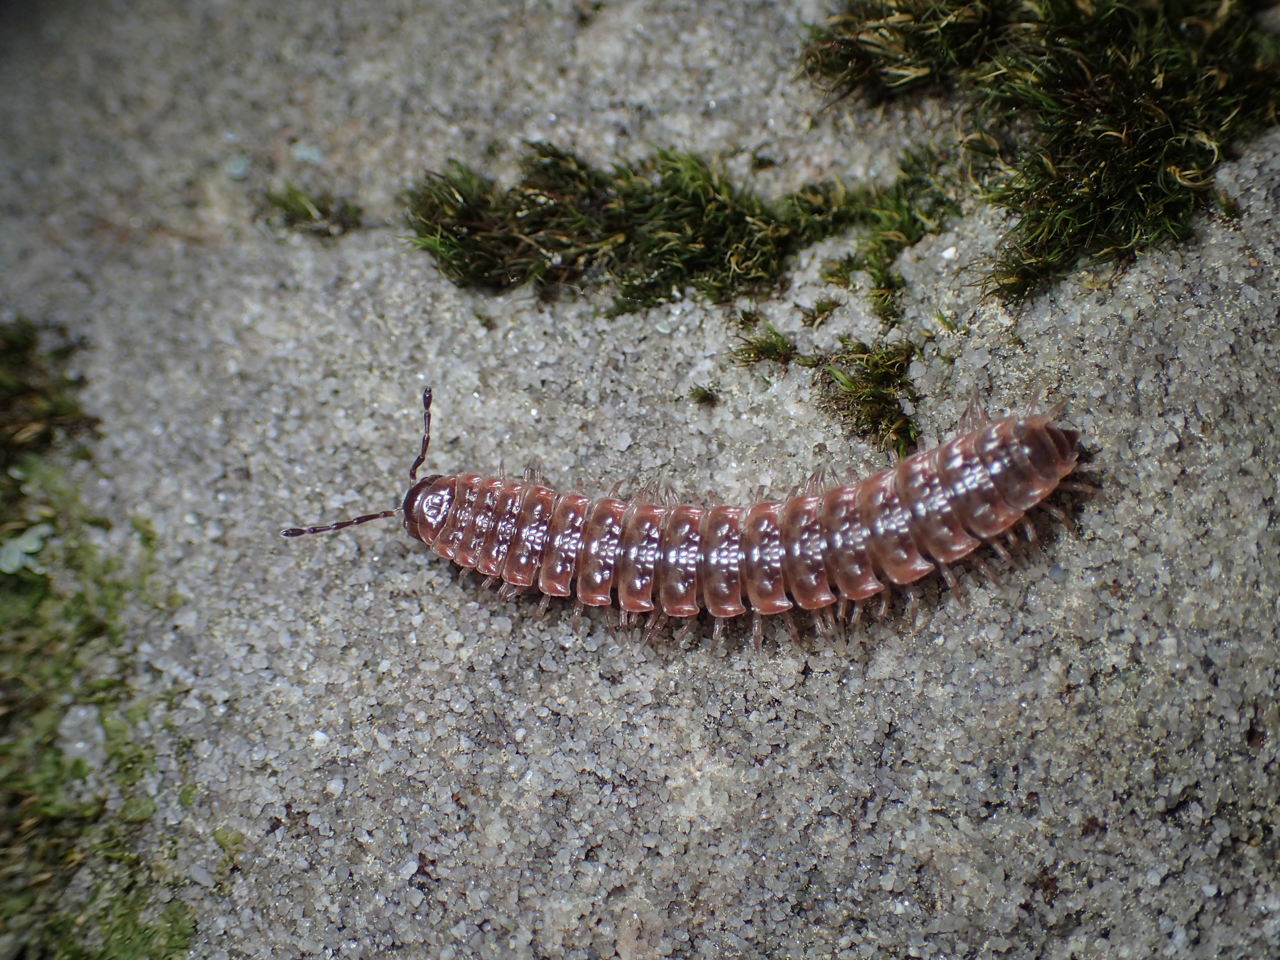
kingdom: Animalia
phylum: Arthropoda
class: Diplopoda
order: Polydesmida
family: Polydesmidae
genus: Pseudopolydesmus
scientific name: Pseudopolydesmus erasus
